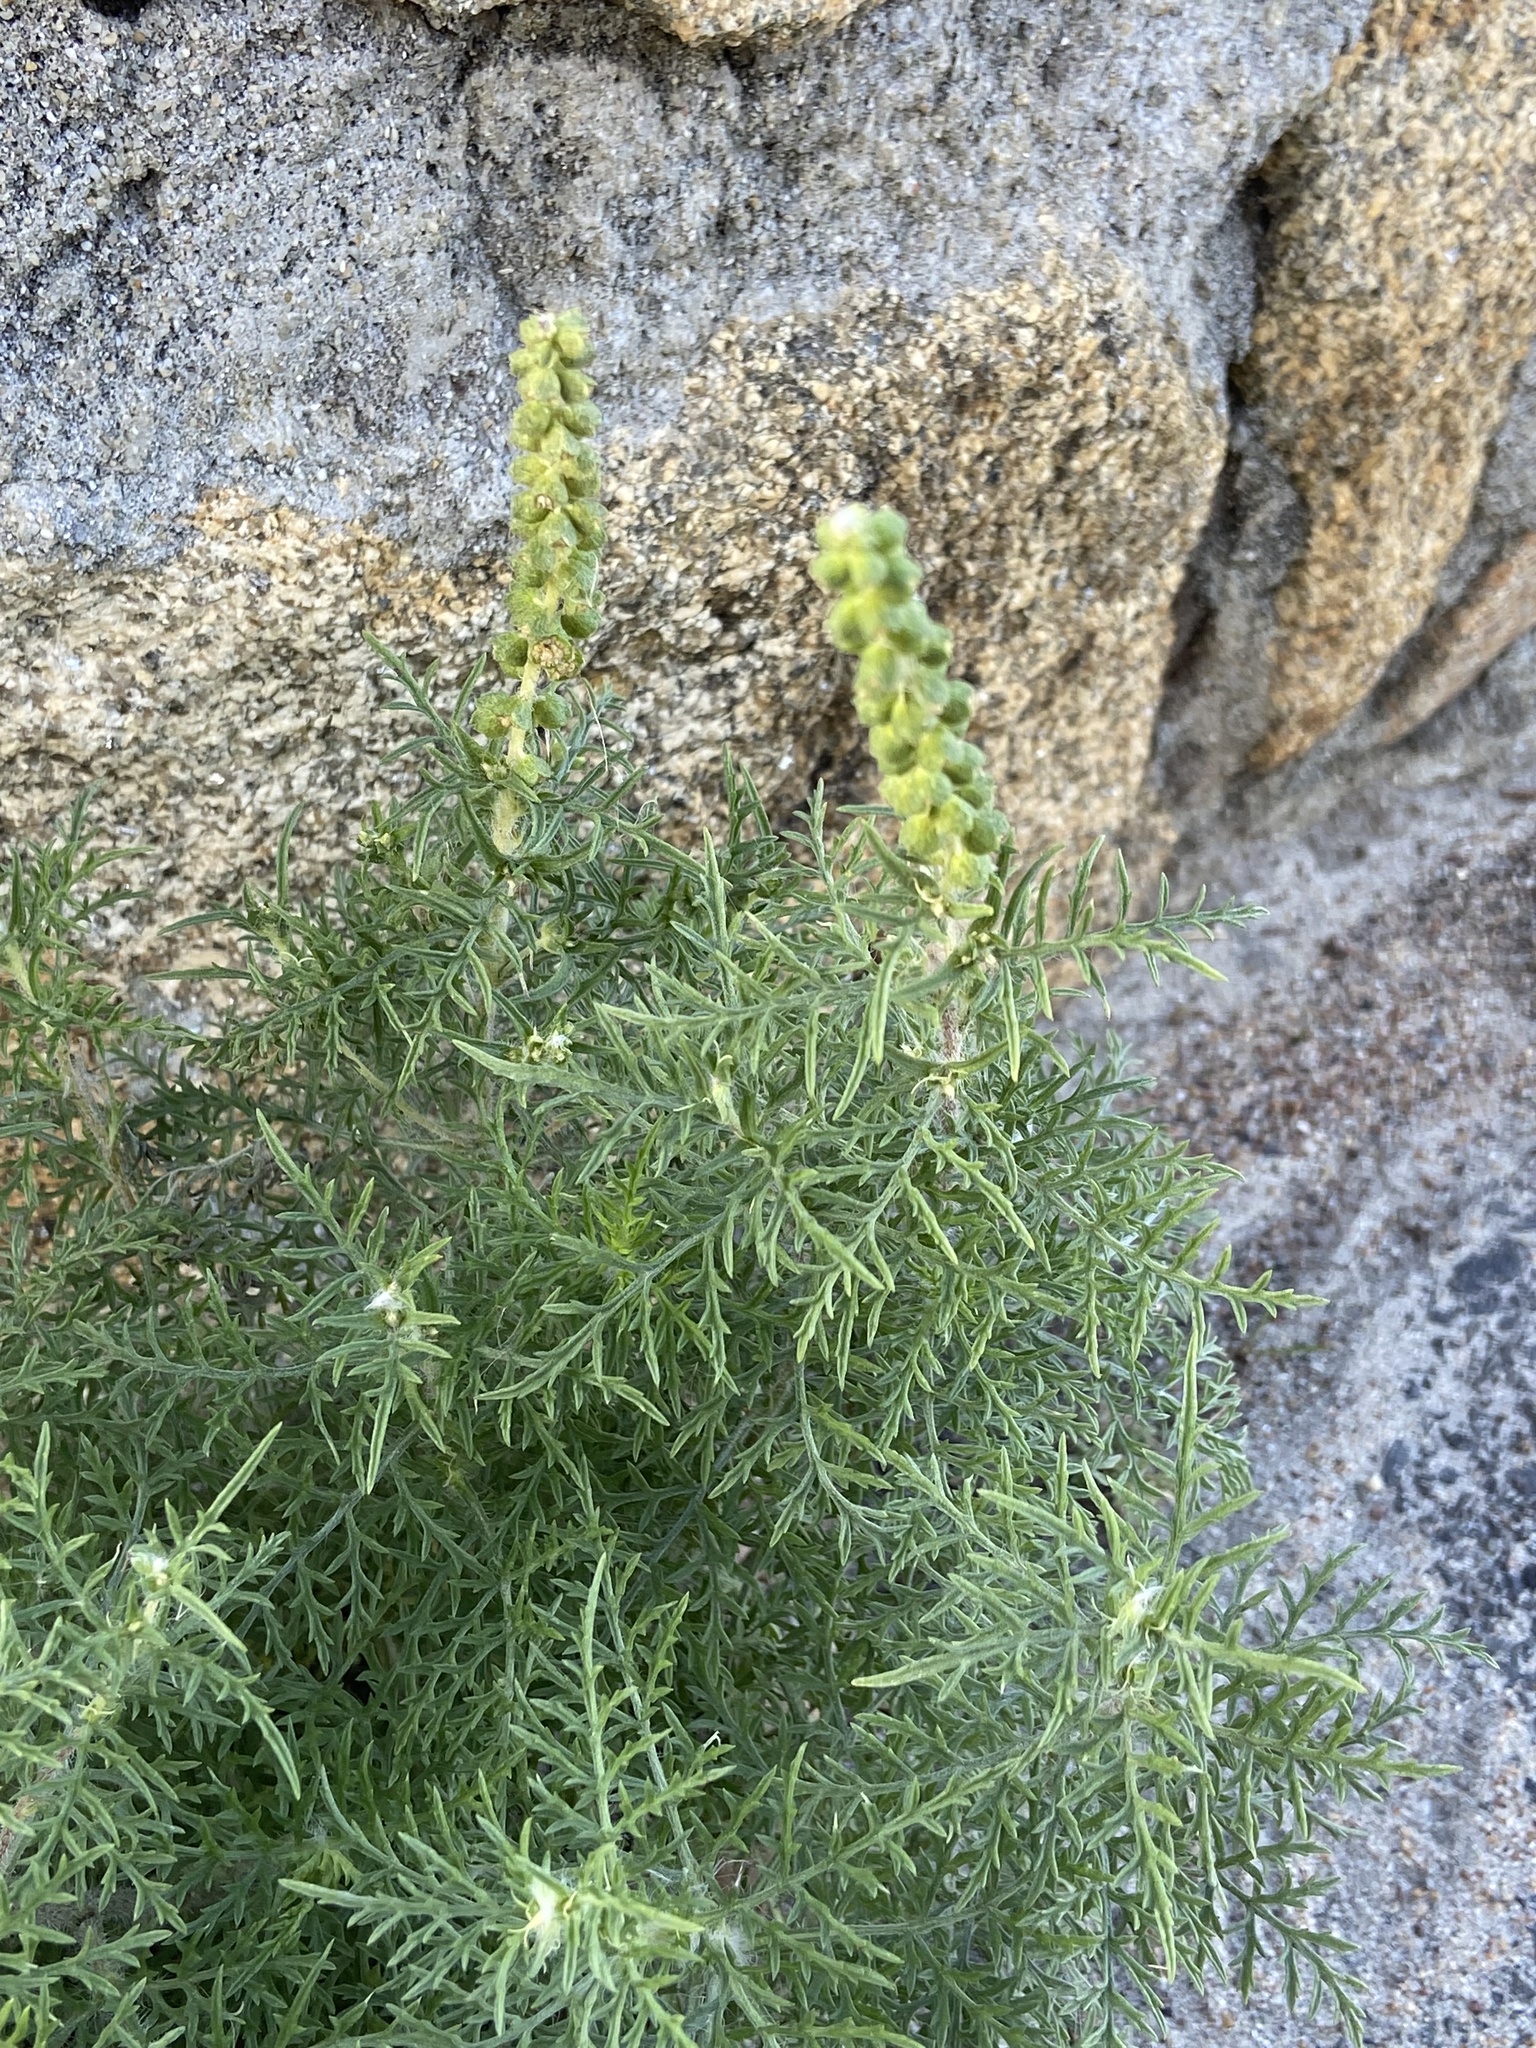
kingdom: Plantae
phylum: Tracheophyta
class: Magnoliopsida
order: Asterales
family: Asteraceae
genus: Ambrosia
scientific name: Ambrosia tenuifolia
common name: Lacy ambrosia
